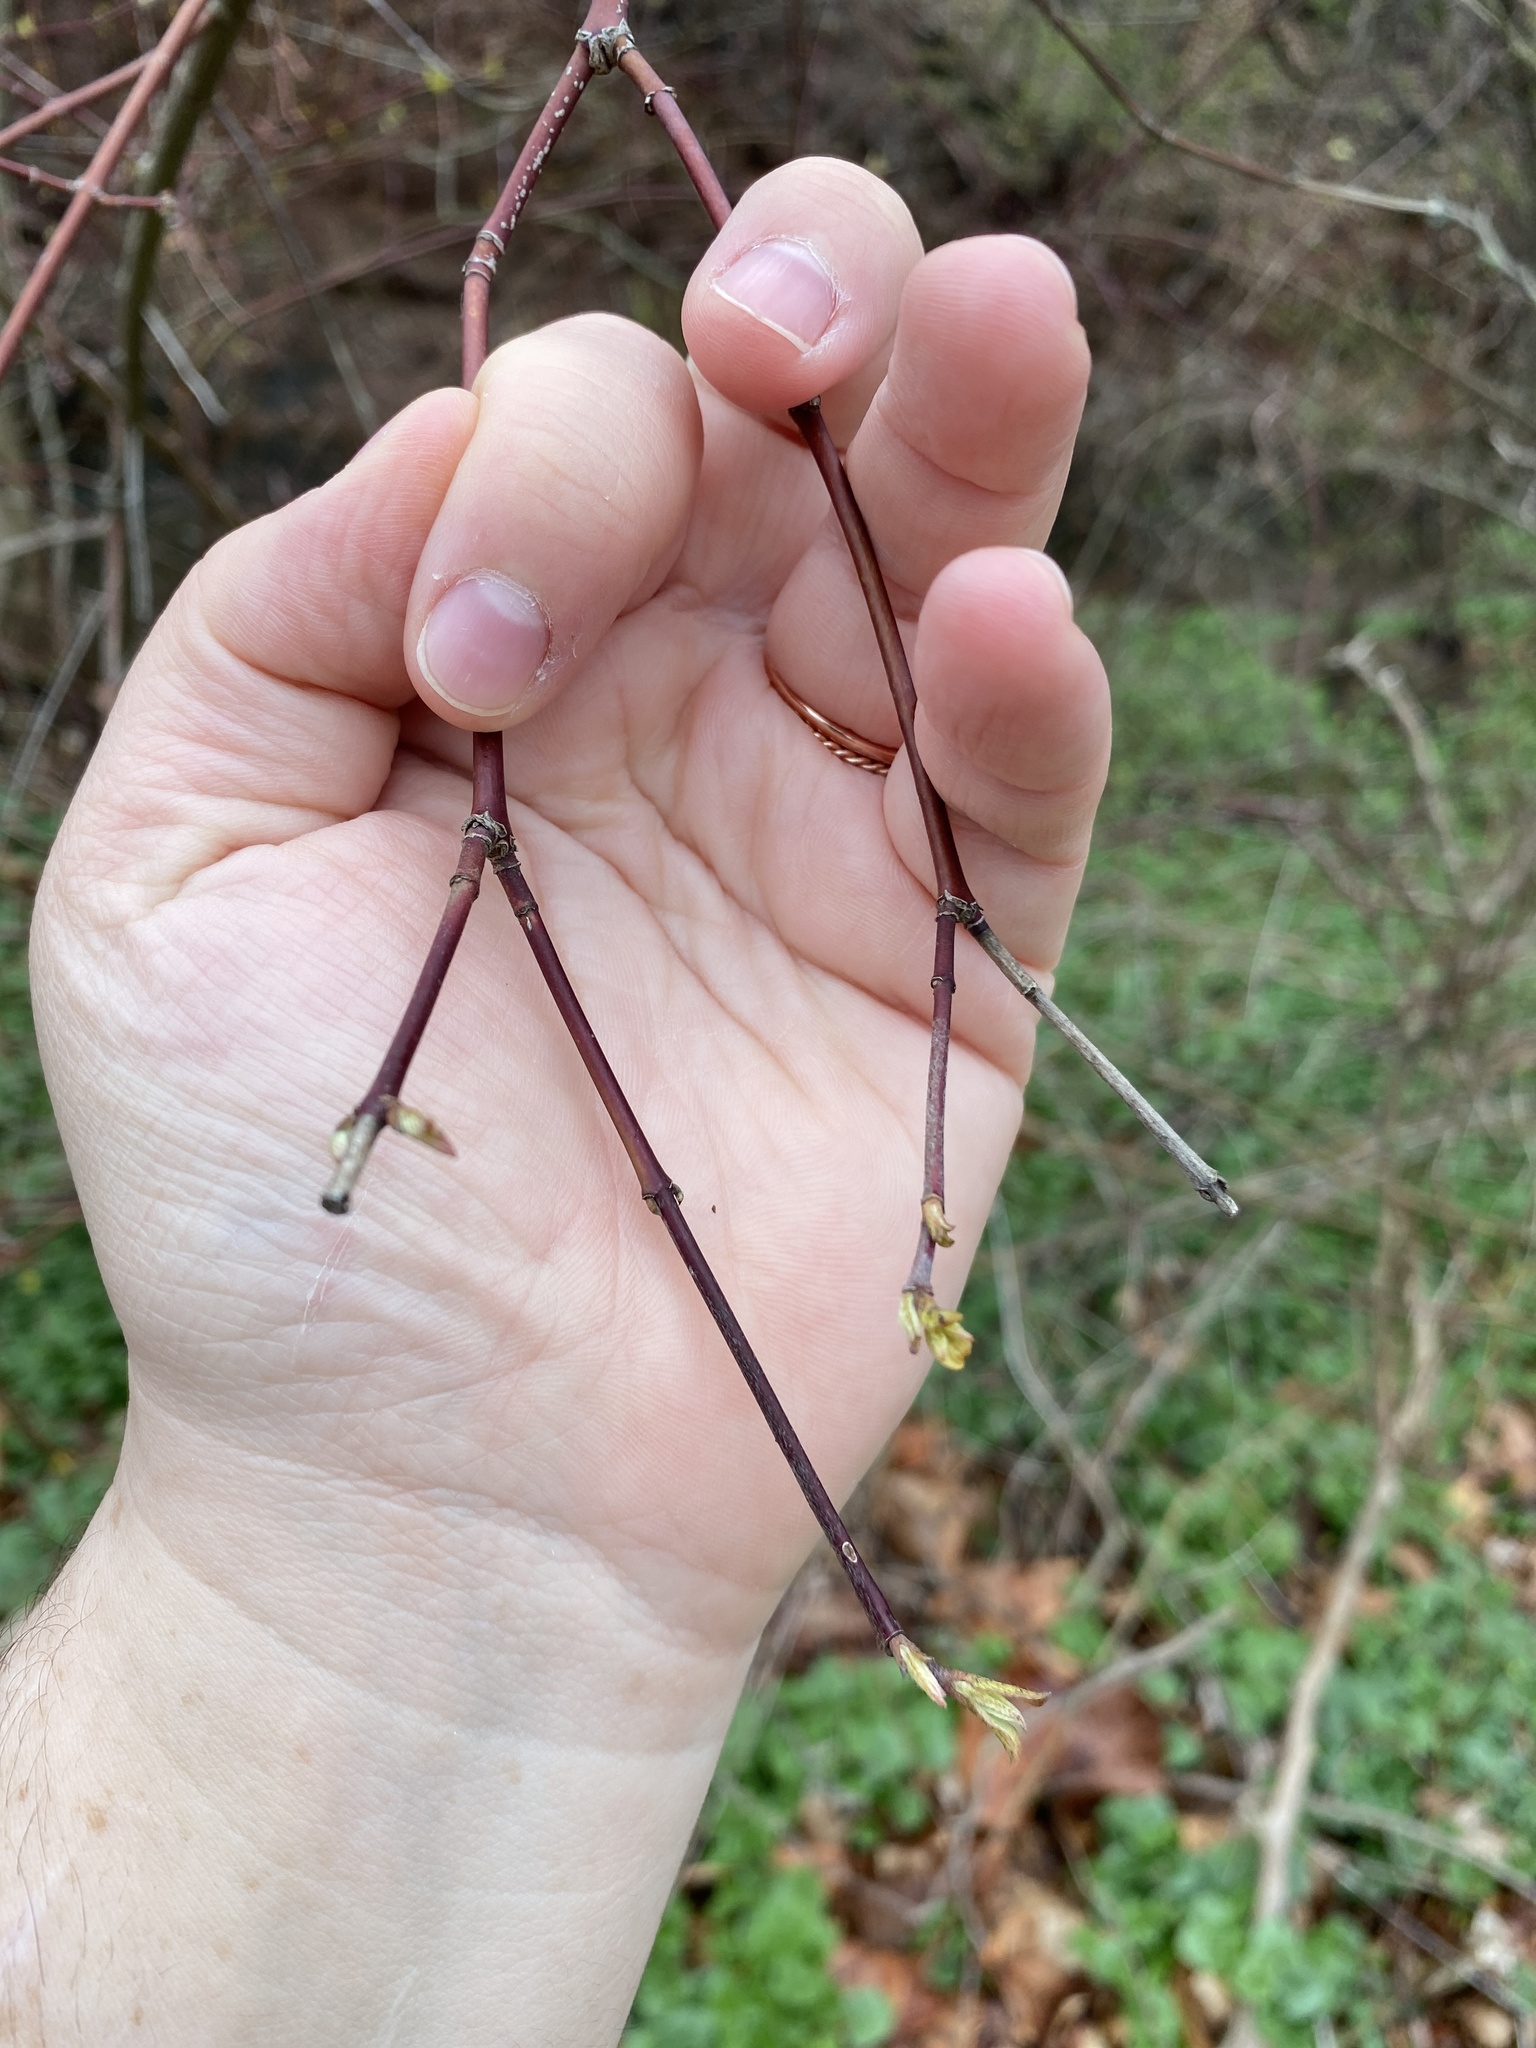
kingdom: Plantae
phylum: Tracheophyta
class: Magnoliopsida
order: Cornales
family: Cornaceae
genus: Cornus
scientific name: Cornus amomum
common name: Silky dogwood
